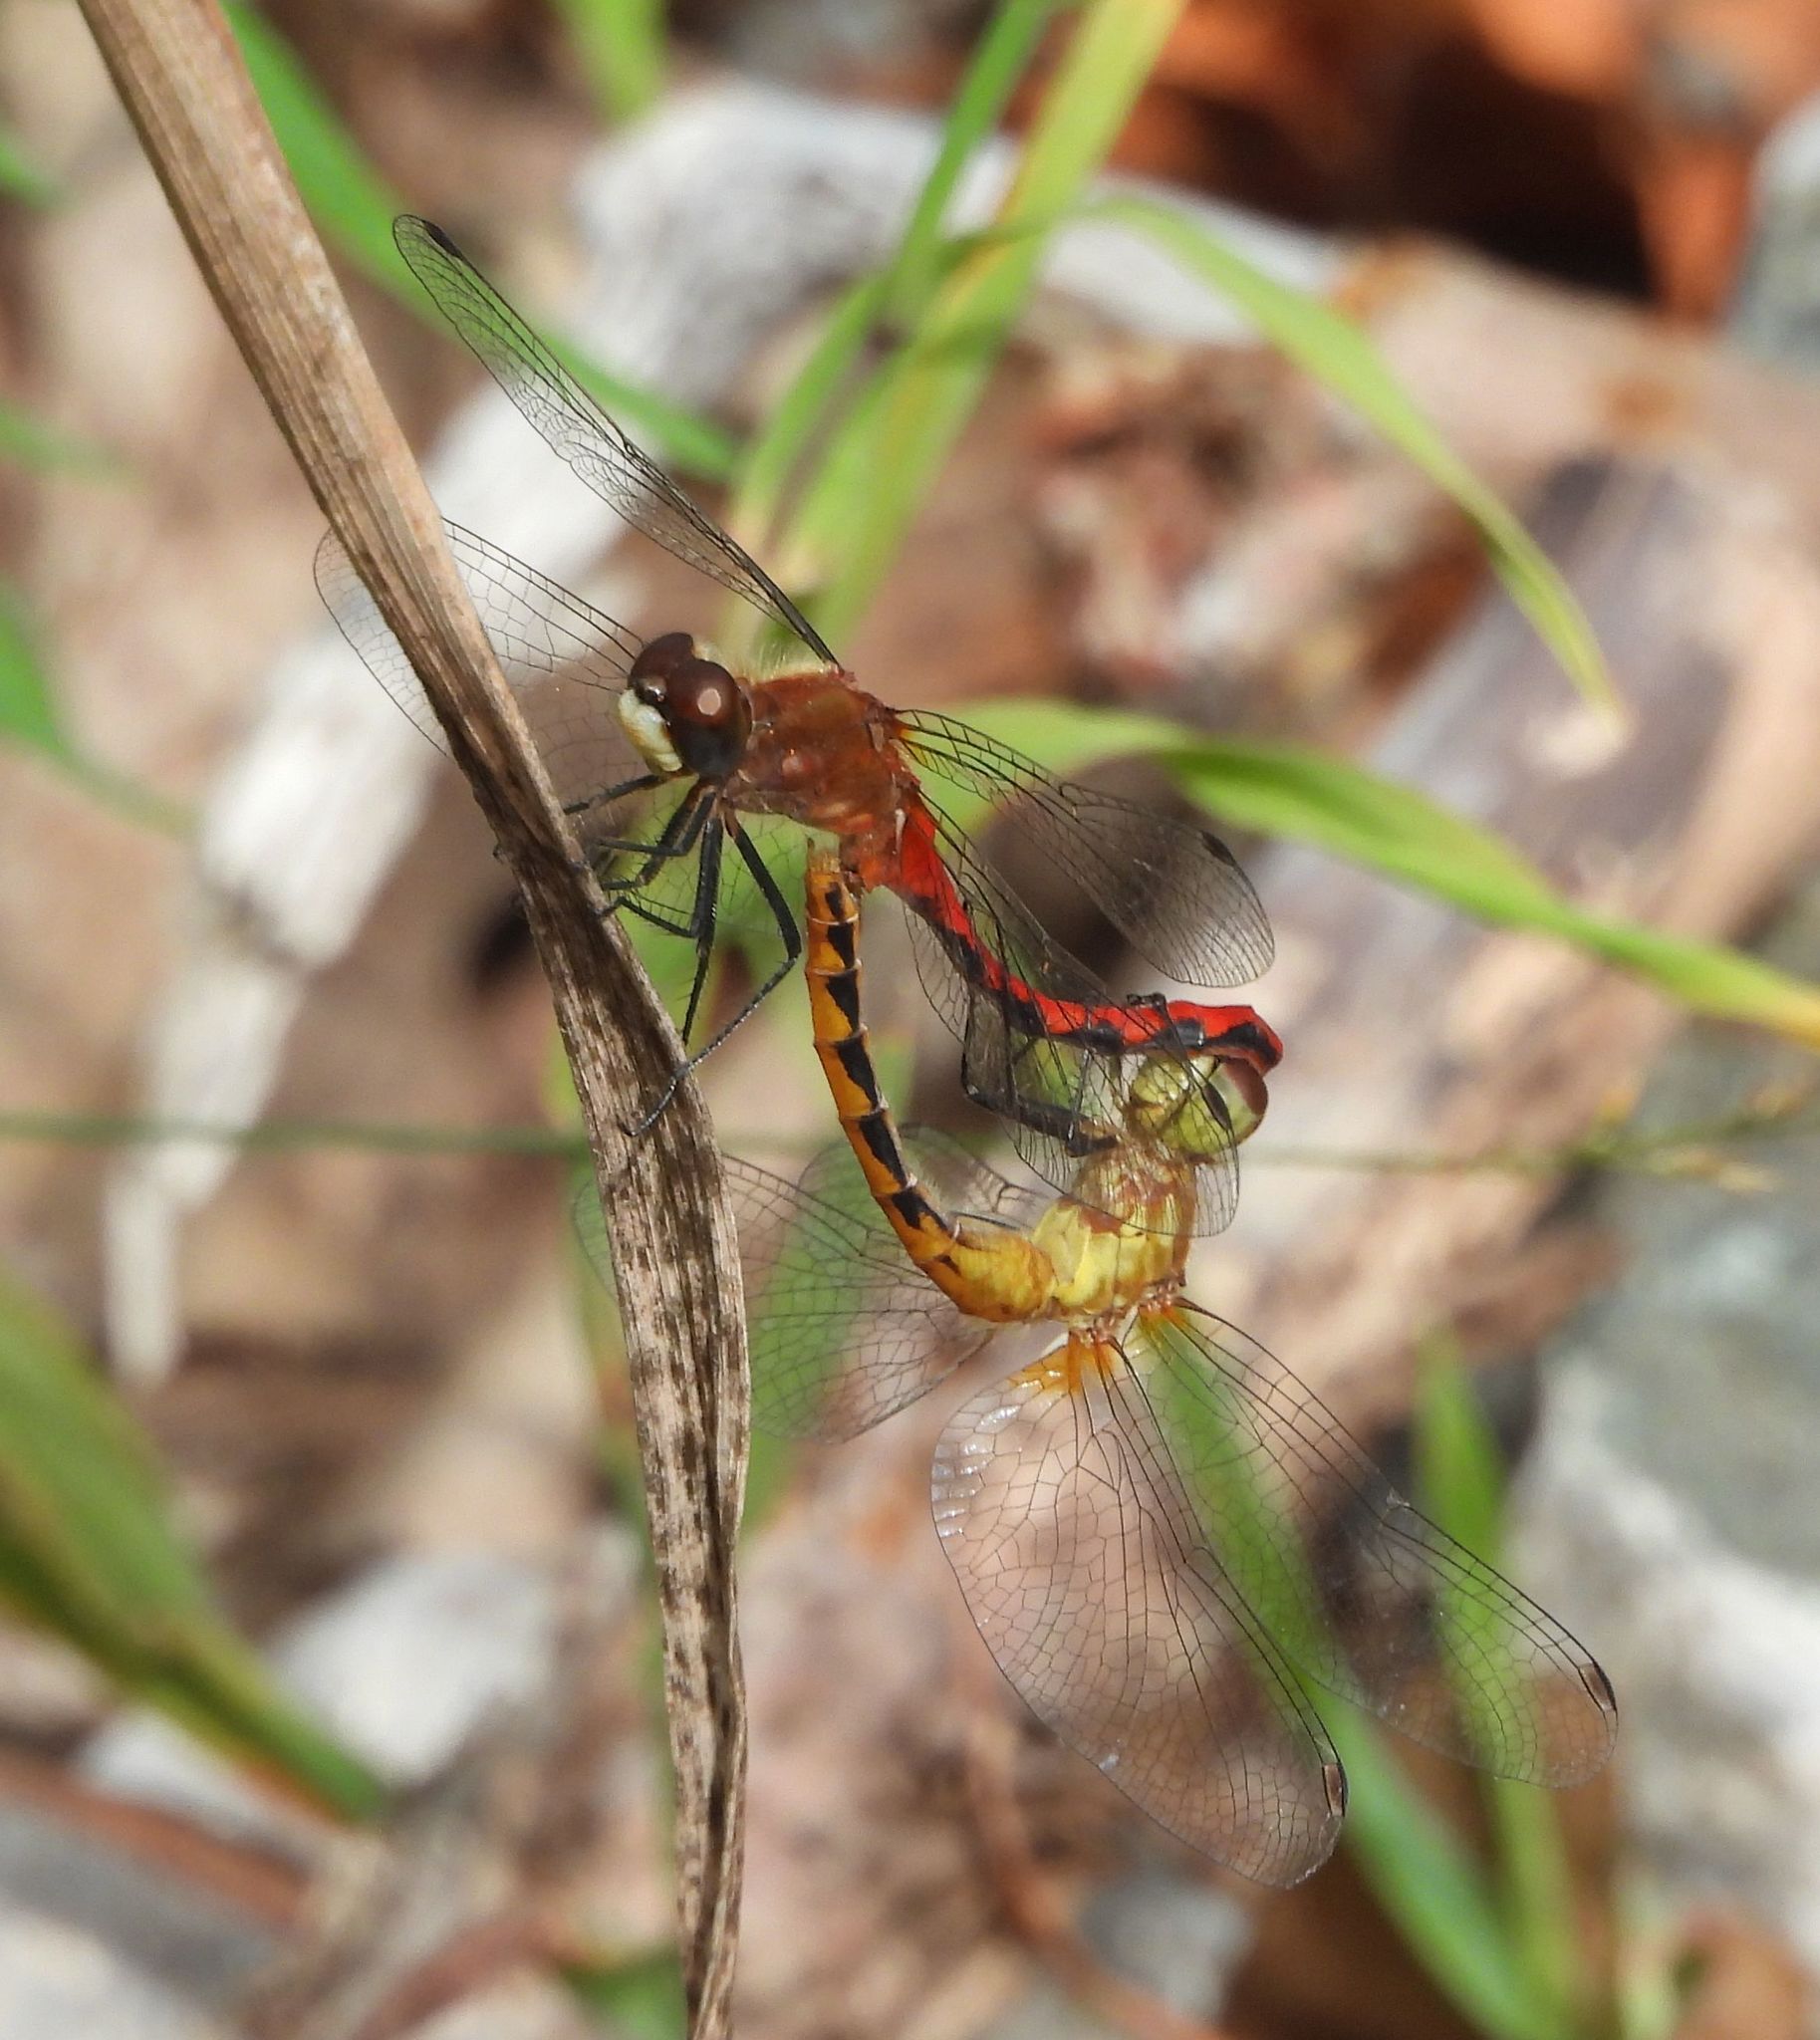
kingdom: Animalia
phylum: Arthropoda
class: Insecta
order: Odonata
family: Libellulidae
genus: Sympetrum
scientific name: Sympetrum obtrusum
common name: White-faced meadowhawk
